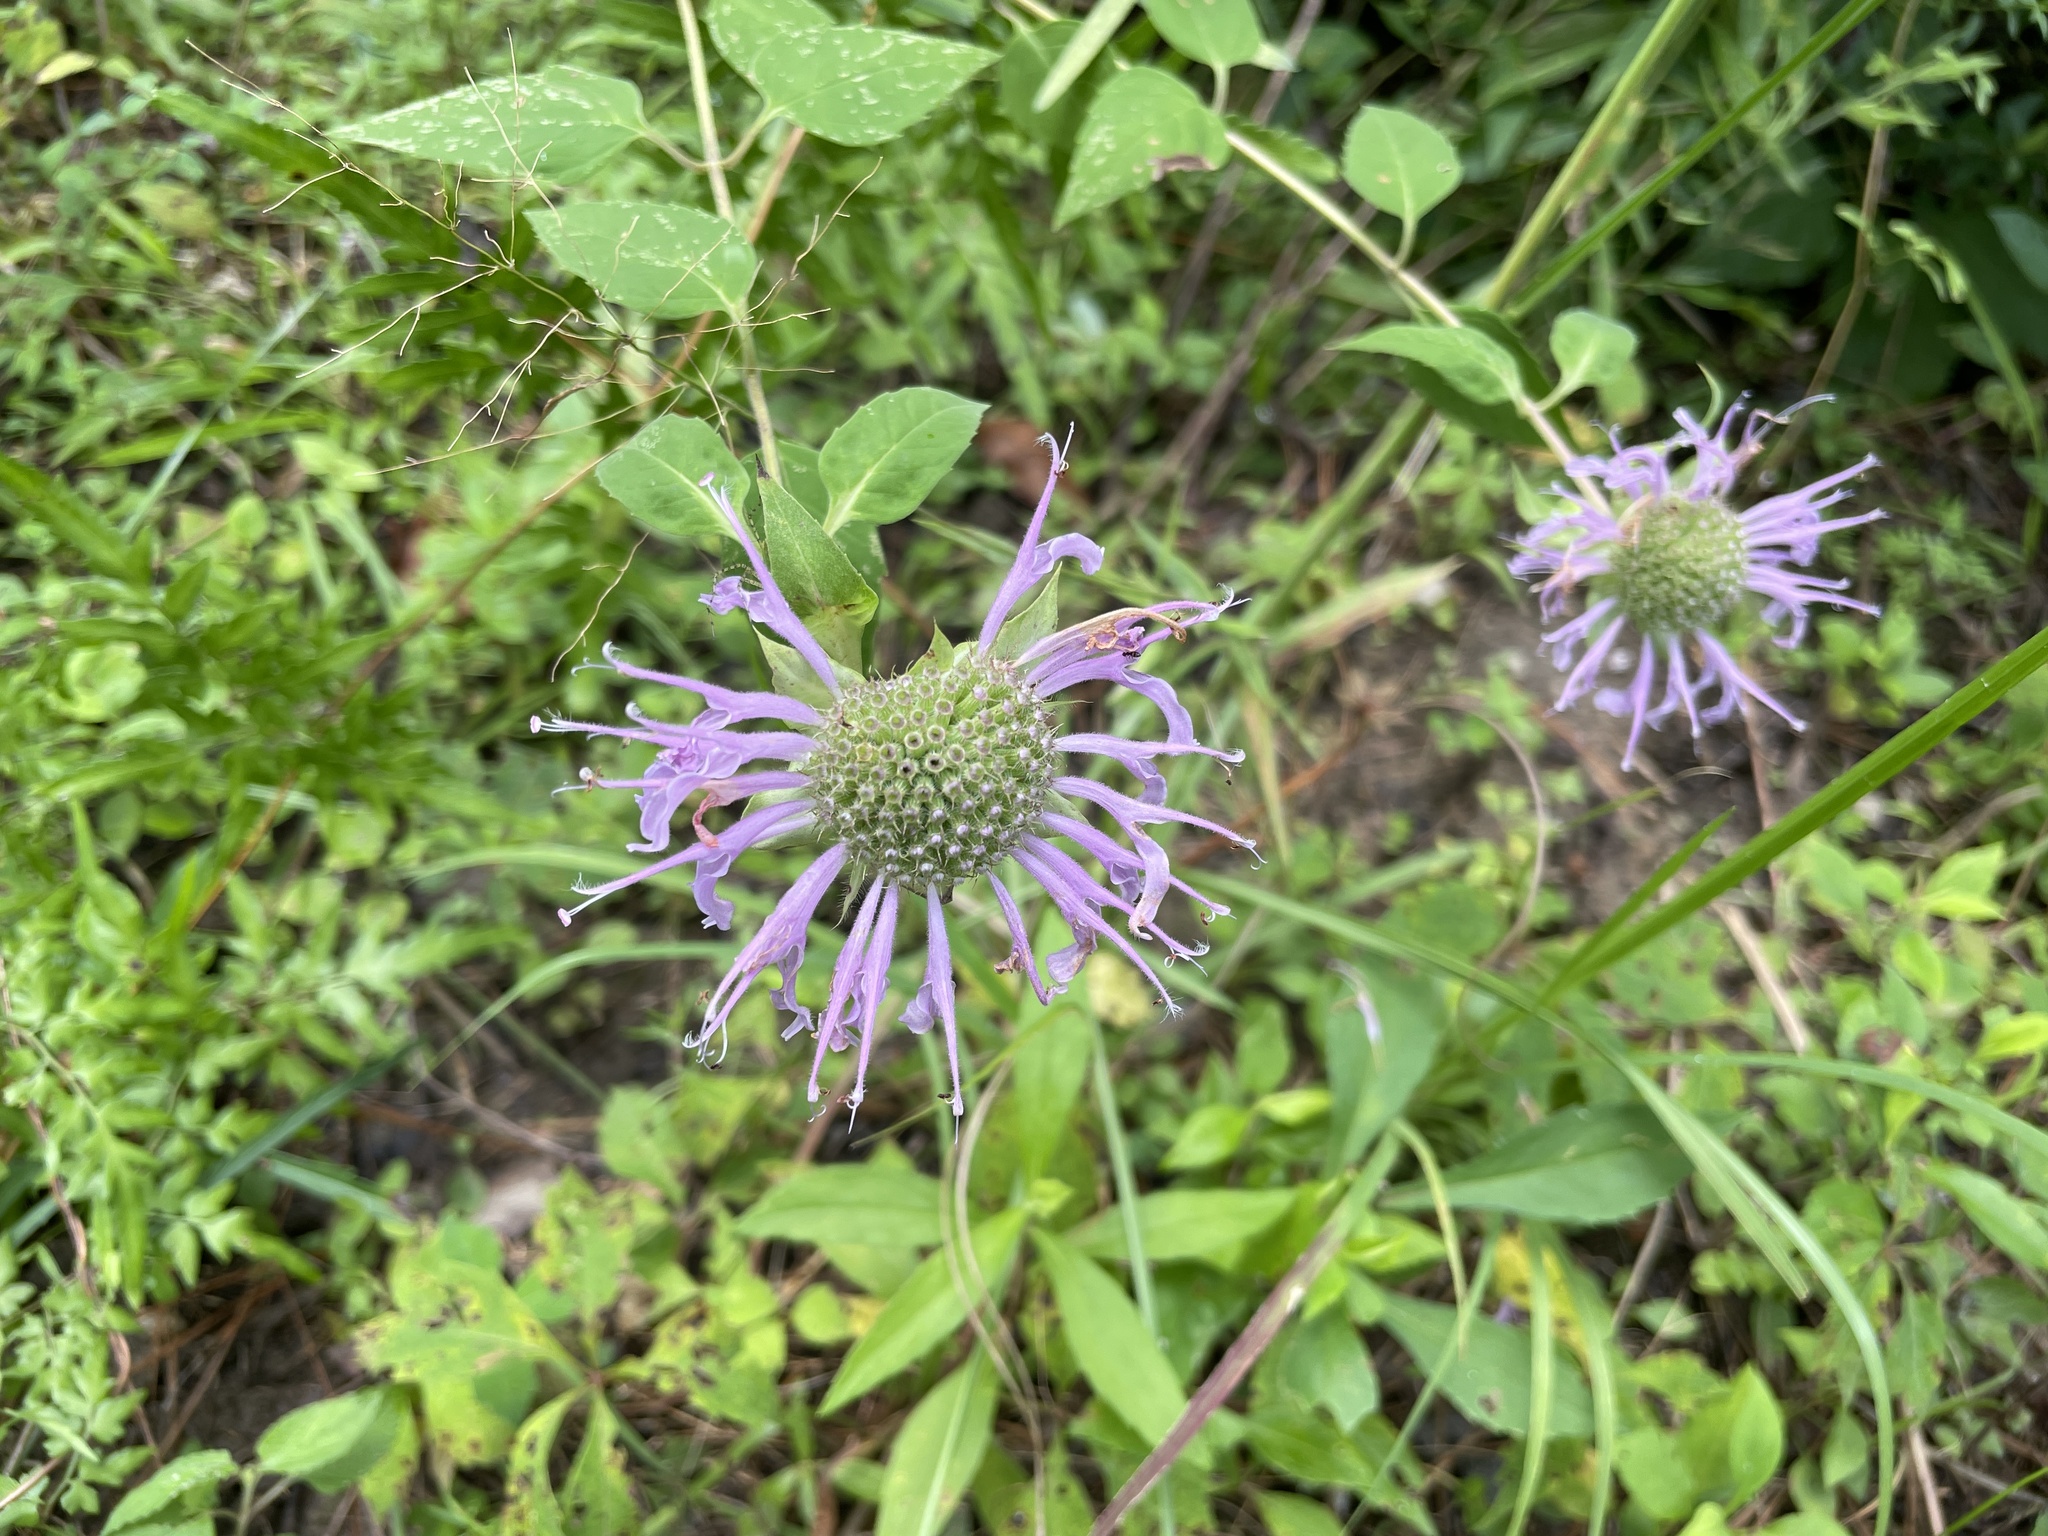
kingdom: Plantae
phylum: Tracheophyta
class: Magnoliopsida
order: Lamiales
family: Lamiaceae
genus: Monarda
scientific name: Monarda fistulosa
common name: Purple beebalm
